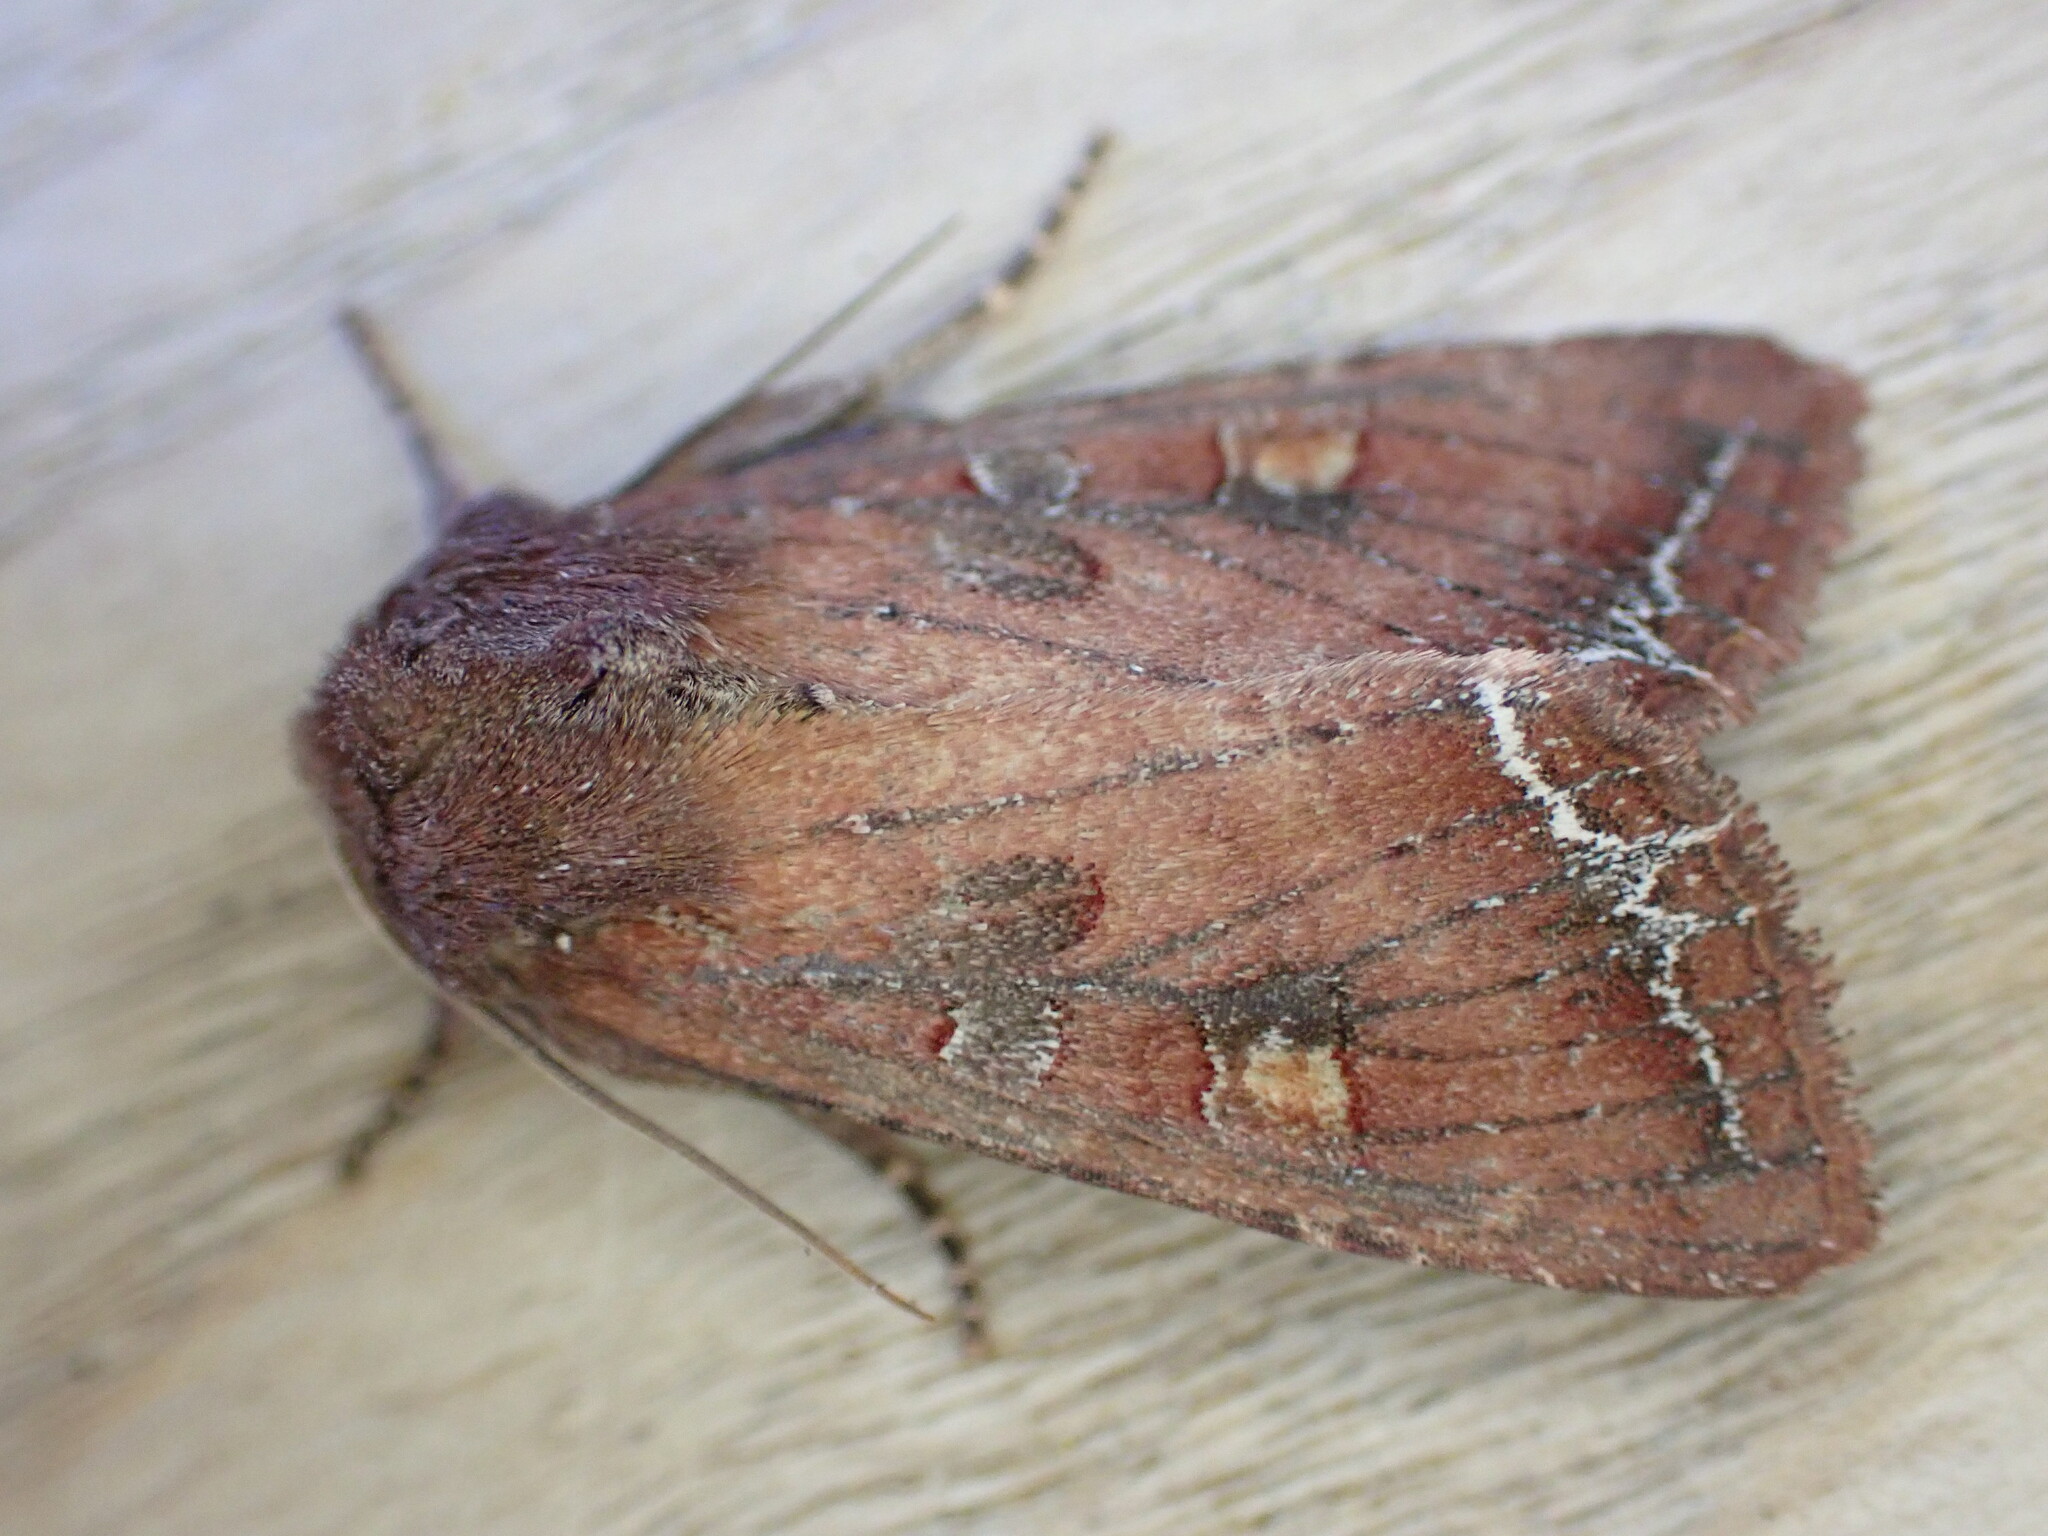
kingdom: Animalia
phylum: Arthropoda
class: Insecta
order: Lepidoptera
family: Noctuidae
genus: Lacanobia
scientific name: Lacanobia oleracea
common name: Bright-line brown-eye
